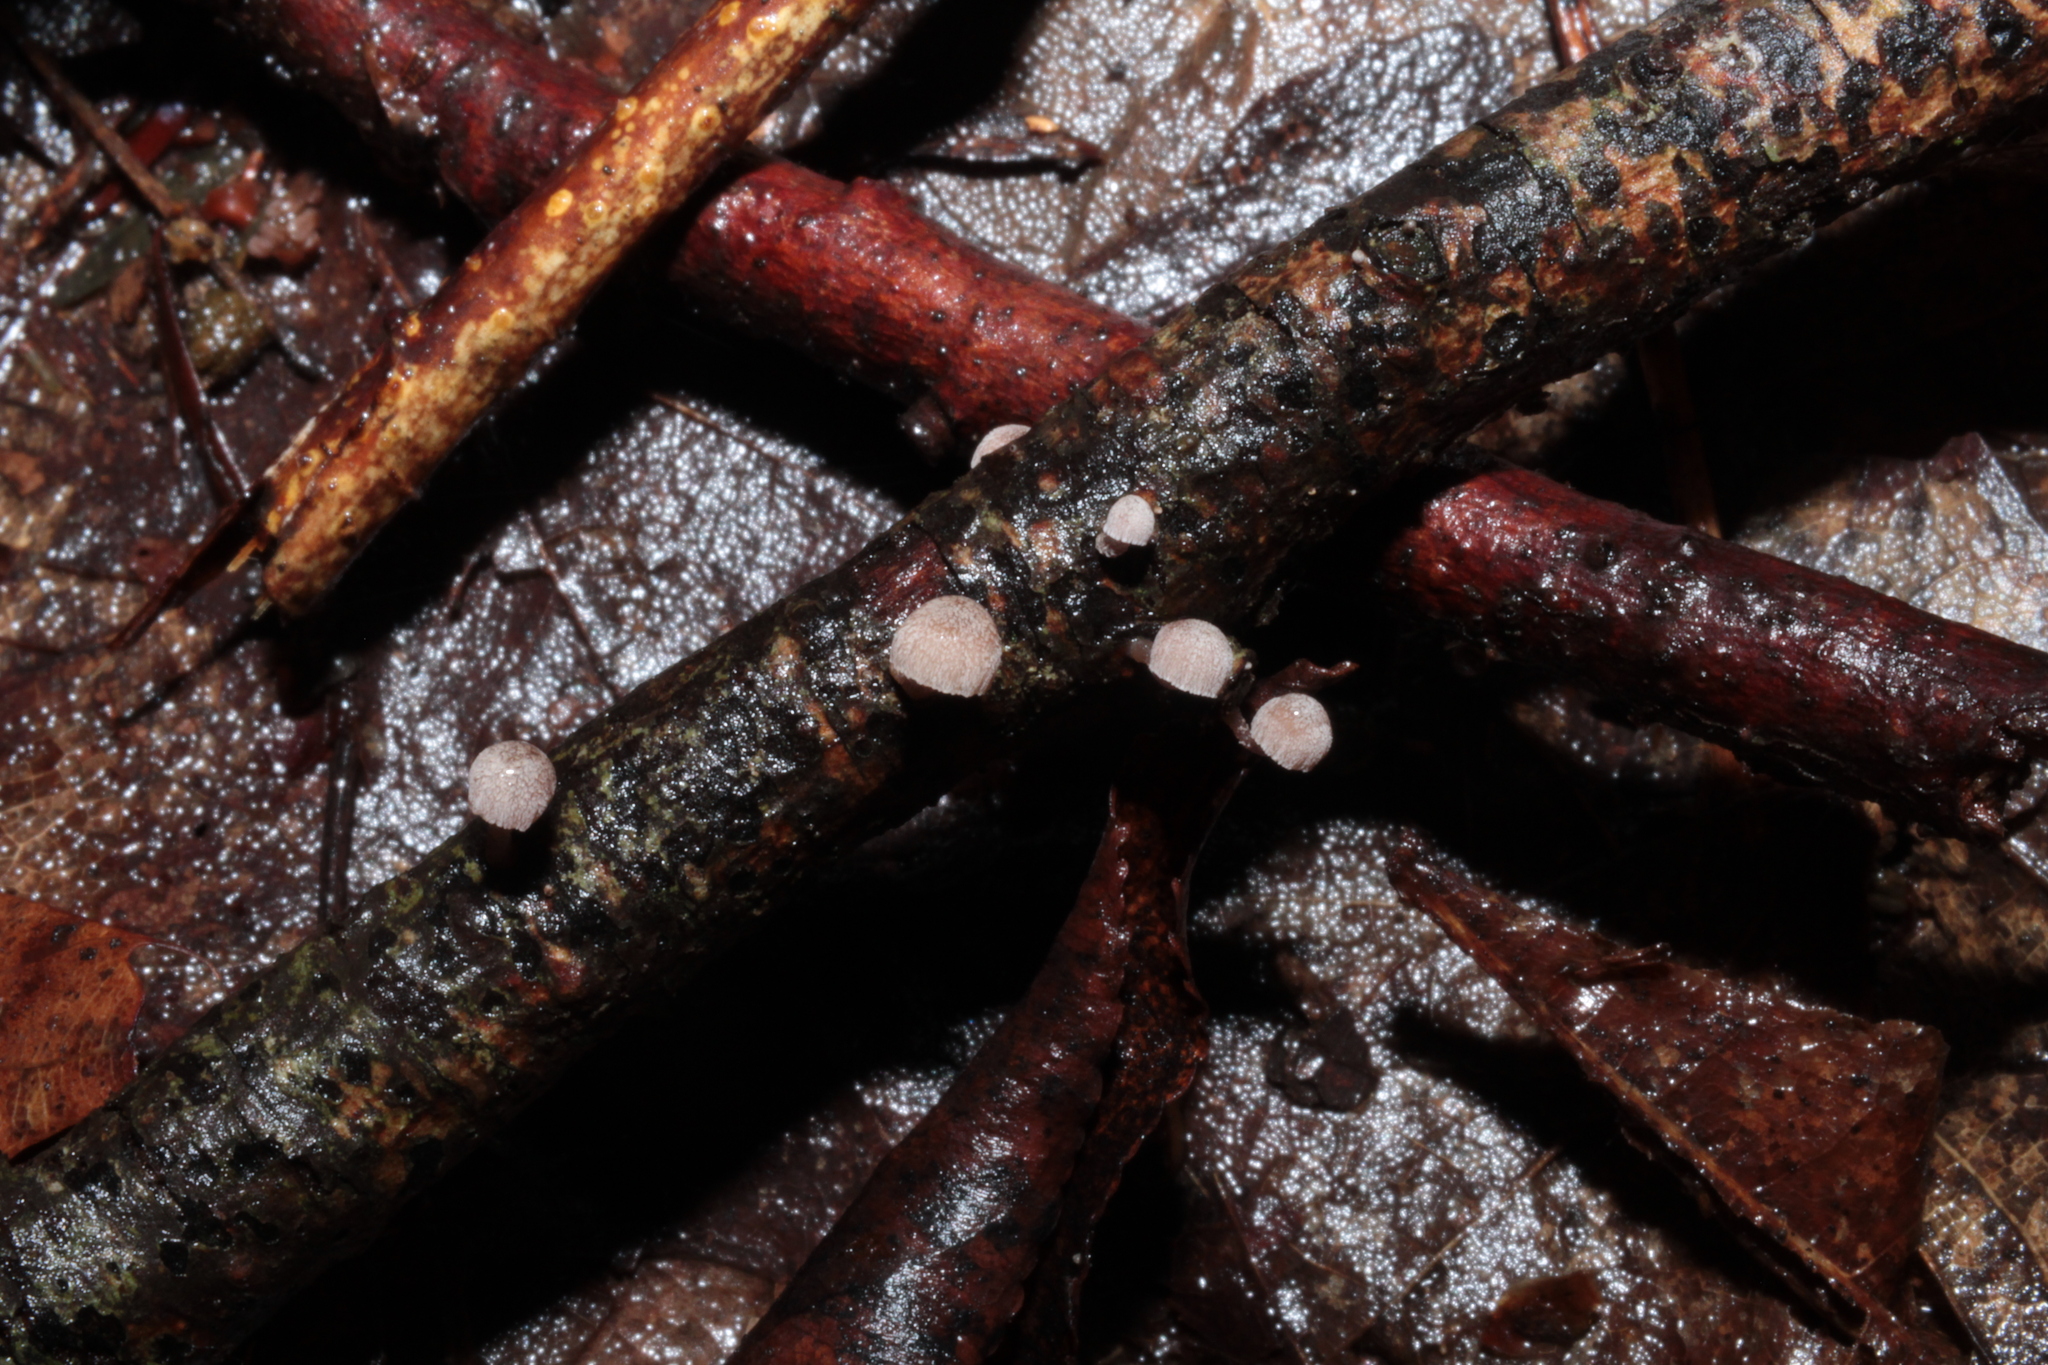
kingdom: Fungi
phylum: Basidiomycota
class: Agaricomycetes
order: Agaricales
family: Mycenaceae
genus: Mycena
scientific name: Mycena meliigena
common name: Mauve bonnet
